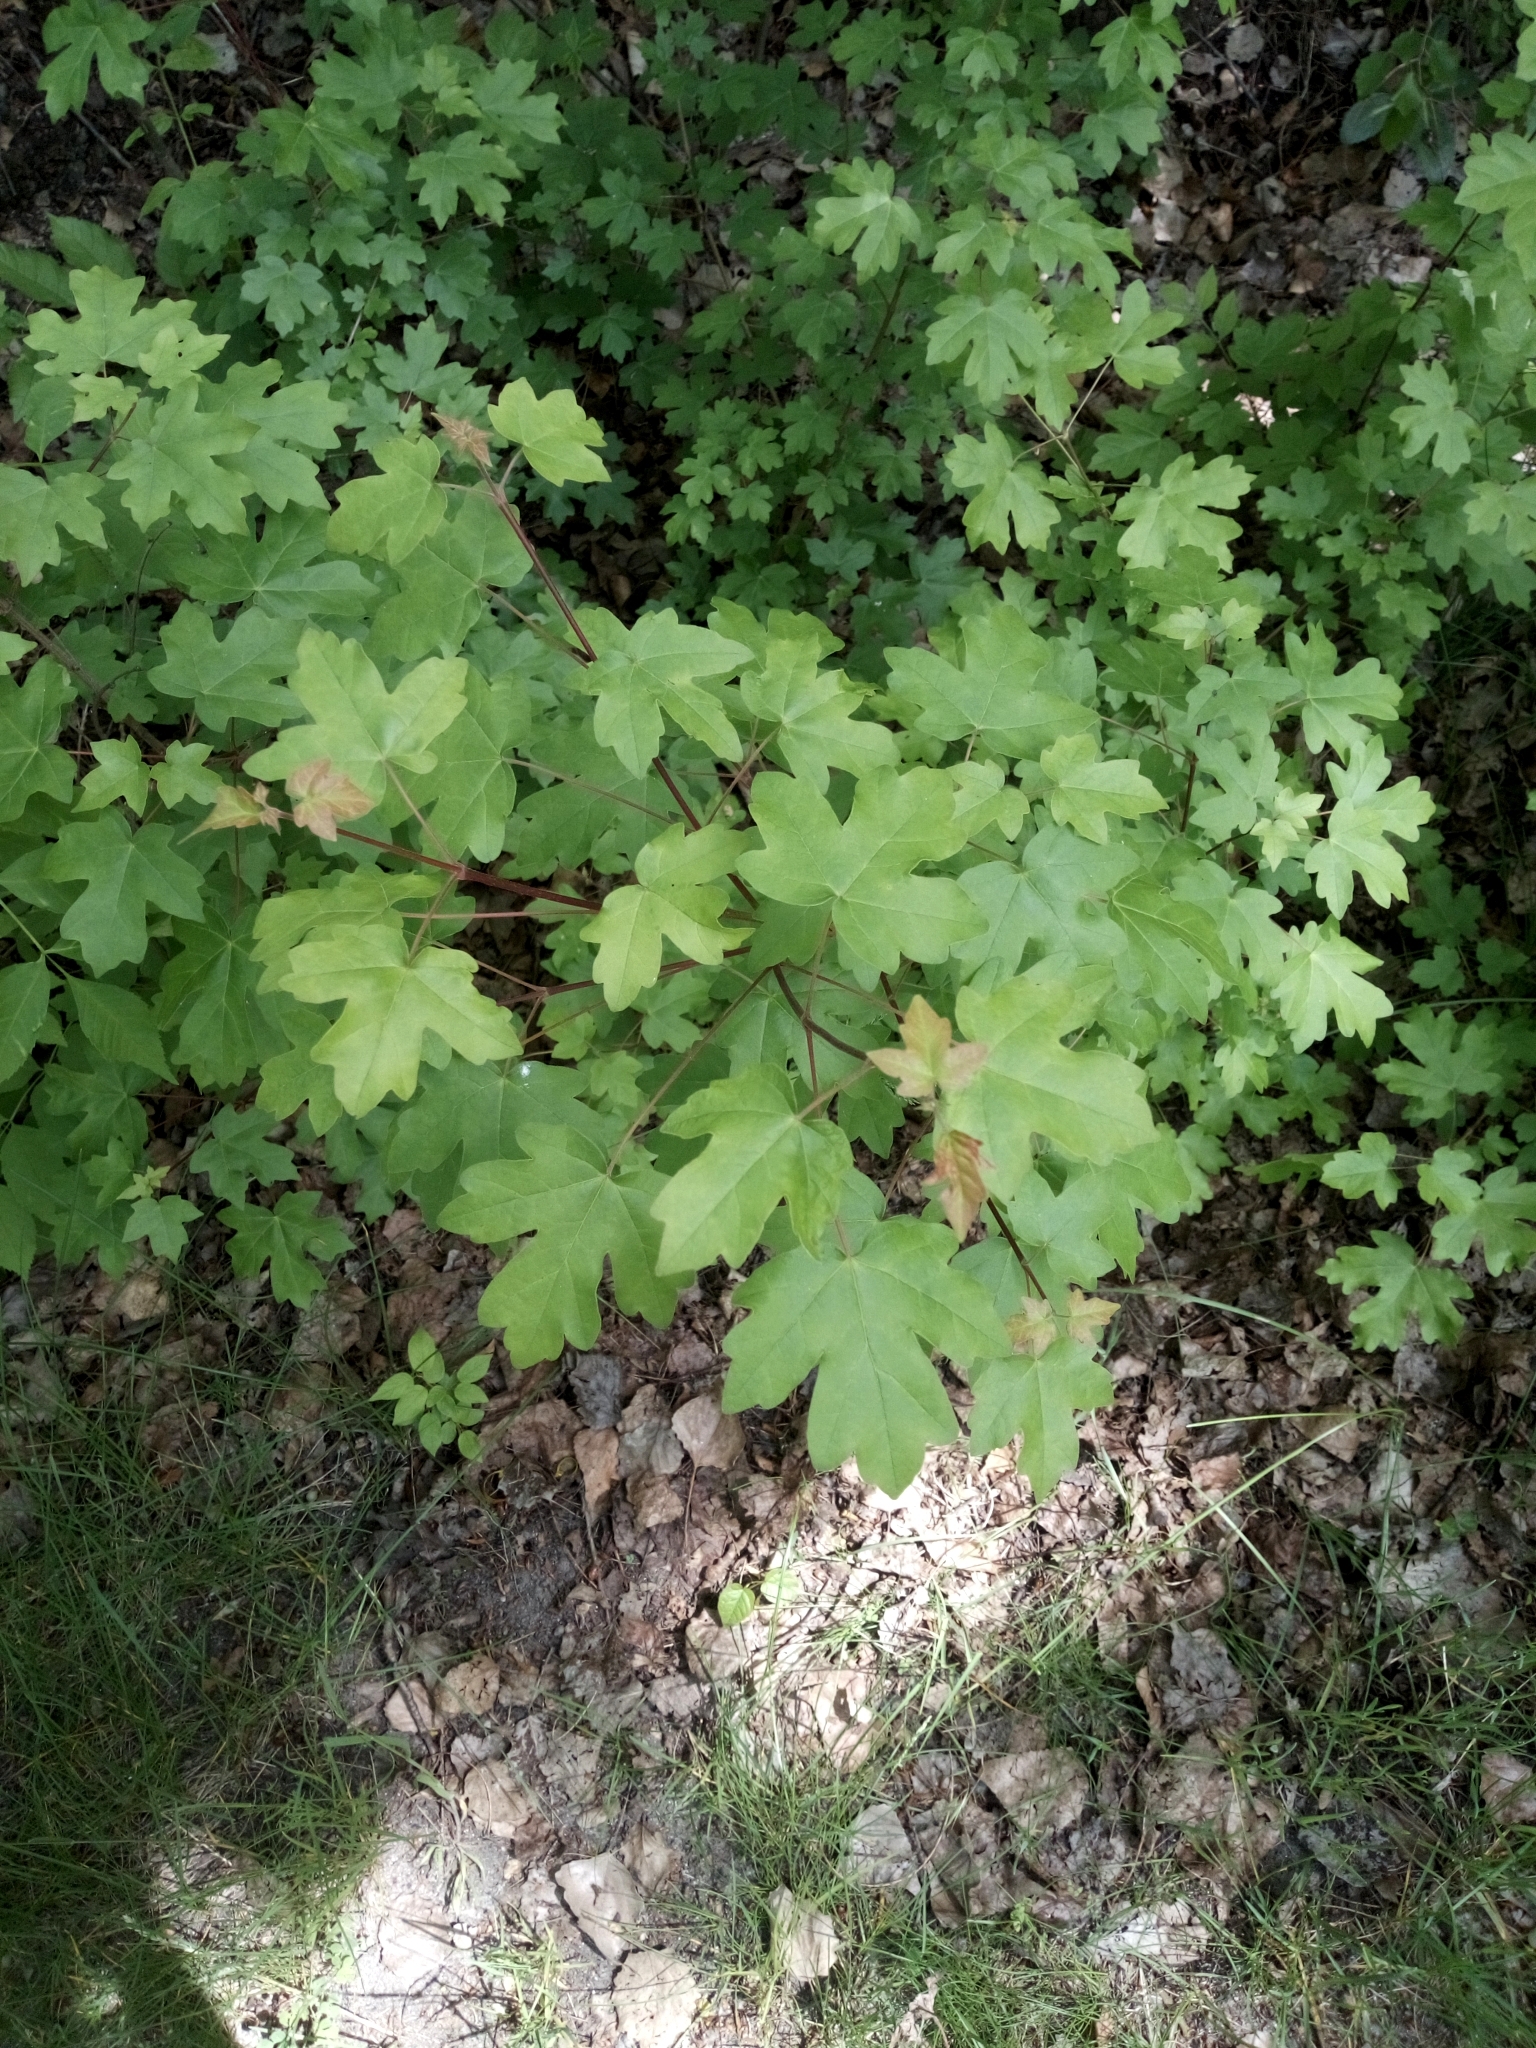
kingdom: Plantae
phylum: Tracheophyta
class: Magnoliopsida
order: Sapindales
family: Sapindaceae
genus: Acer
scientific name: Acer campestre
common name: Field maple
